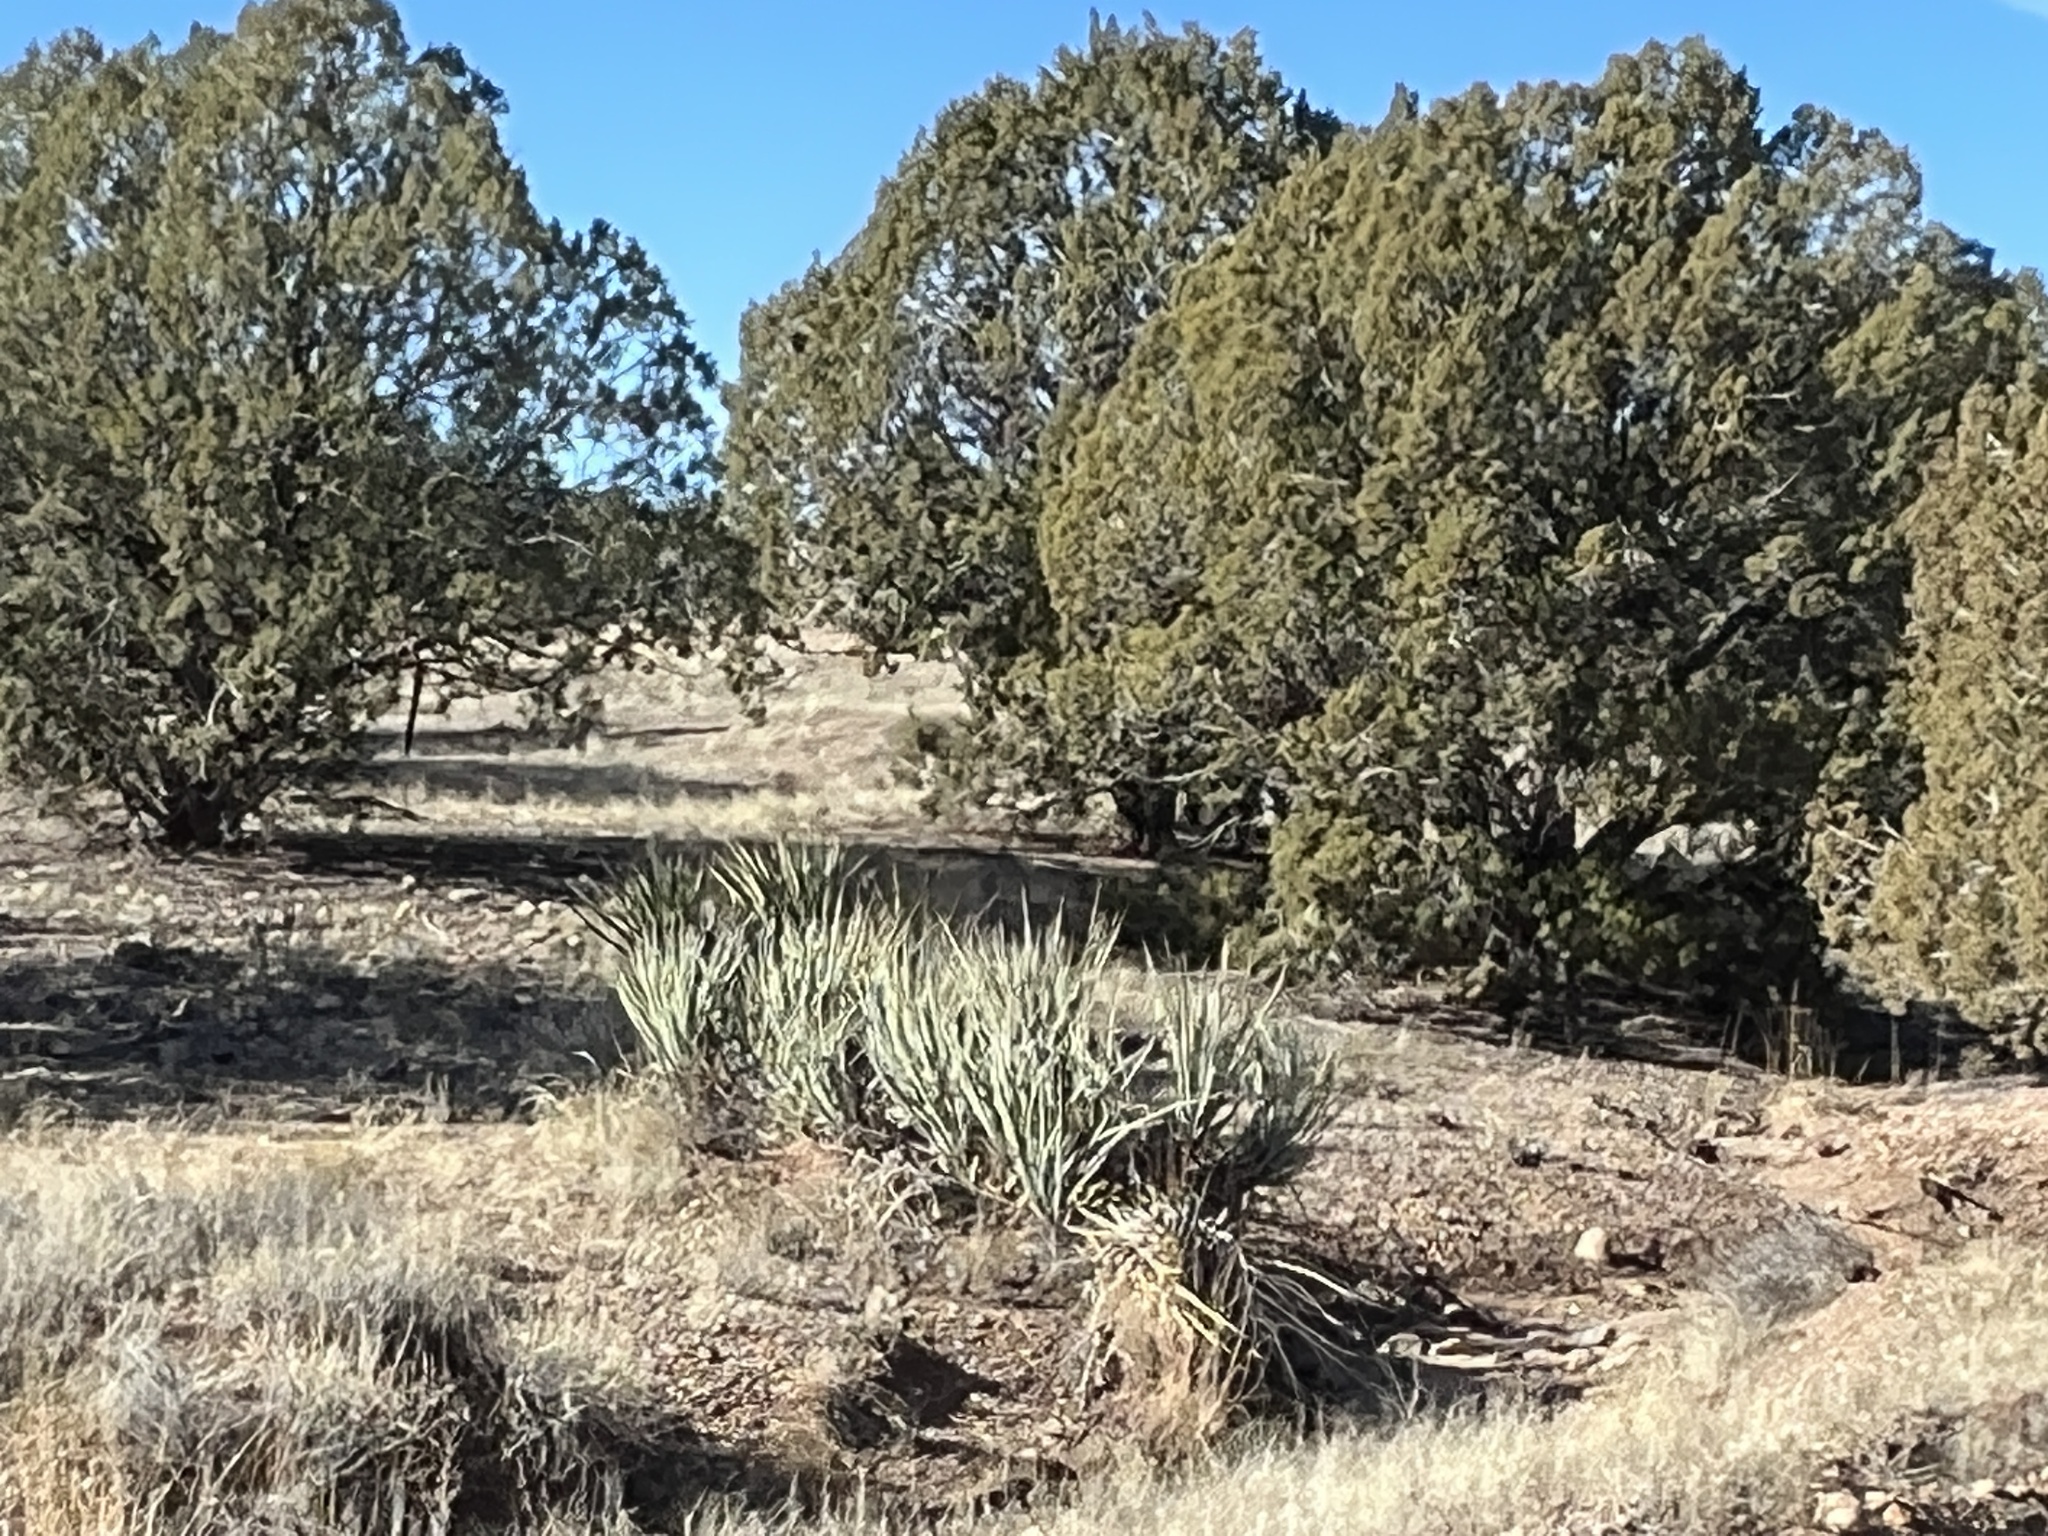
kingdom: Plantae
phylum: Tracheophyta
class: Liliopsida
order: Asparagales
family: Asparagaceae
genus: Yucca
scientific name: Yucca baccata
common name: Banana yucca
